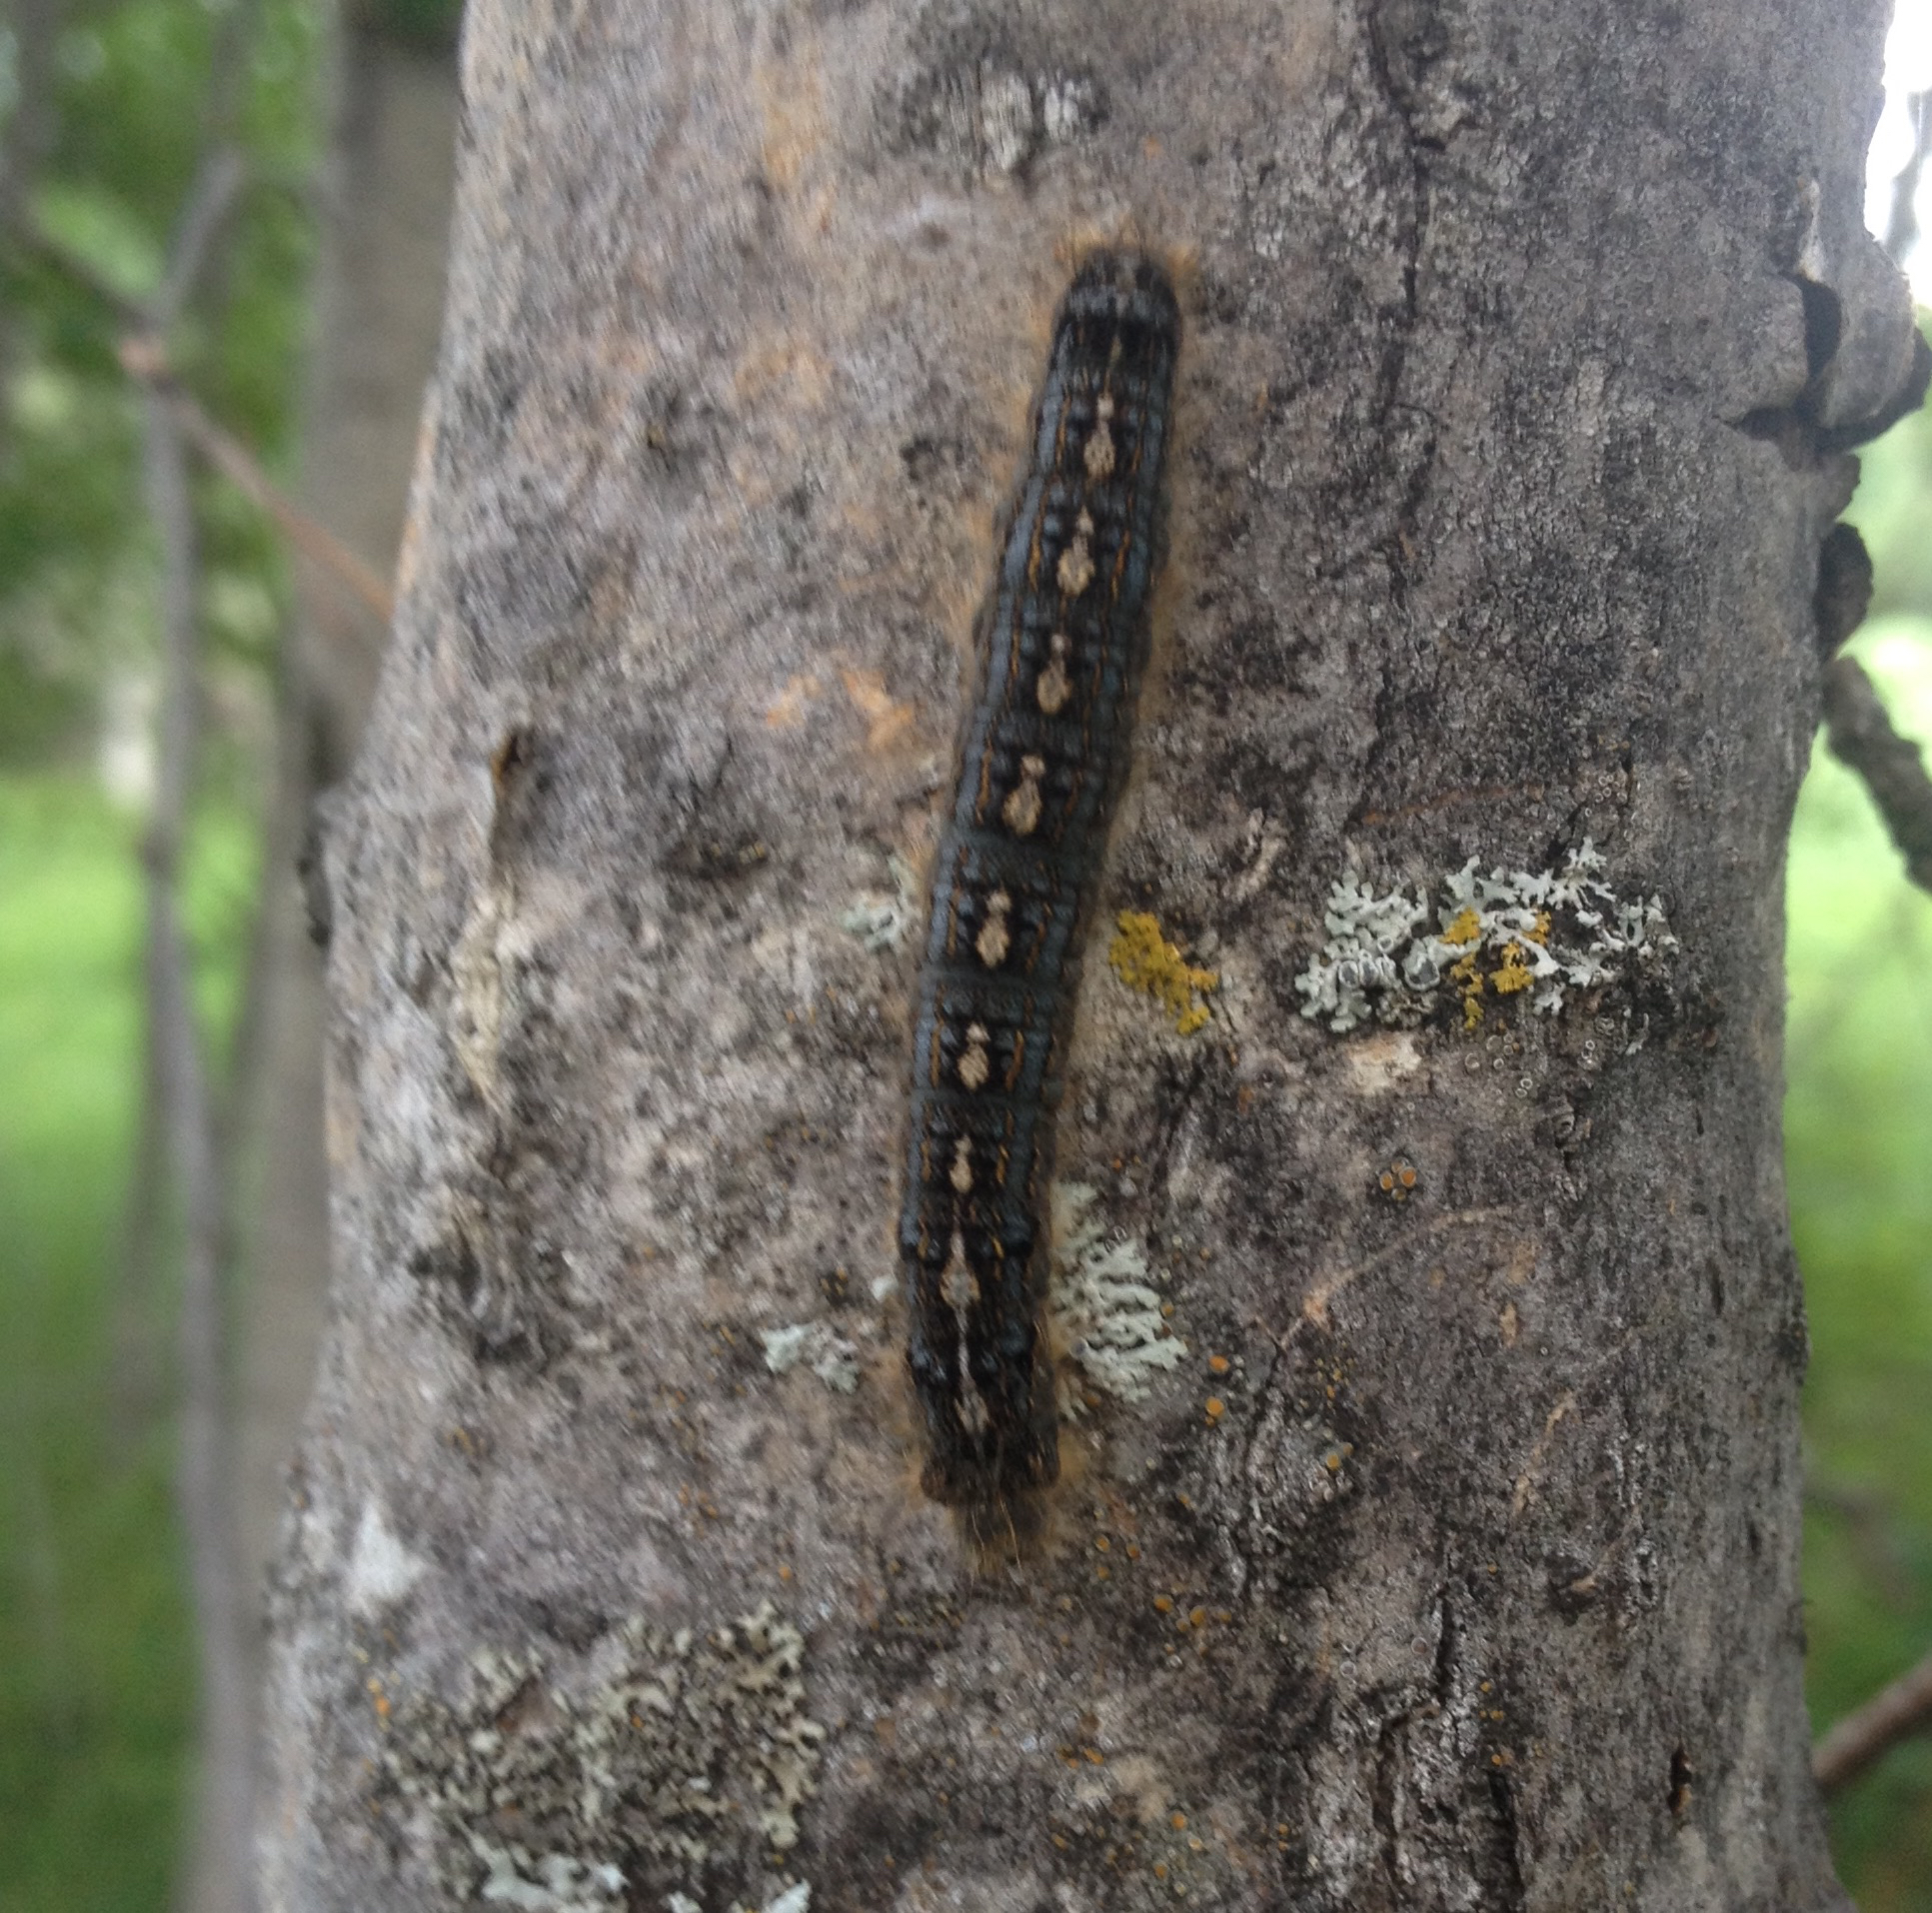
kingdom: Animalia
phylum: Arthropoda
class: Insecta
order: Lepidoptera
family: Lasiocampidae
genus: Malacosoma
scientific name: Malacosoma disstria
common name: Forest tent caterpillar
